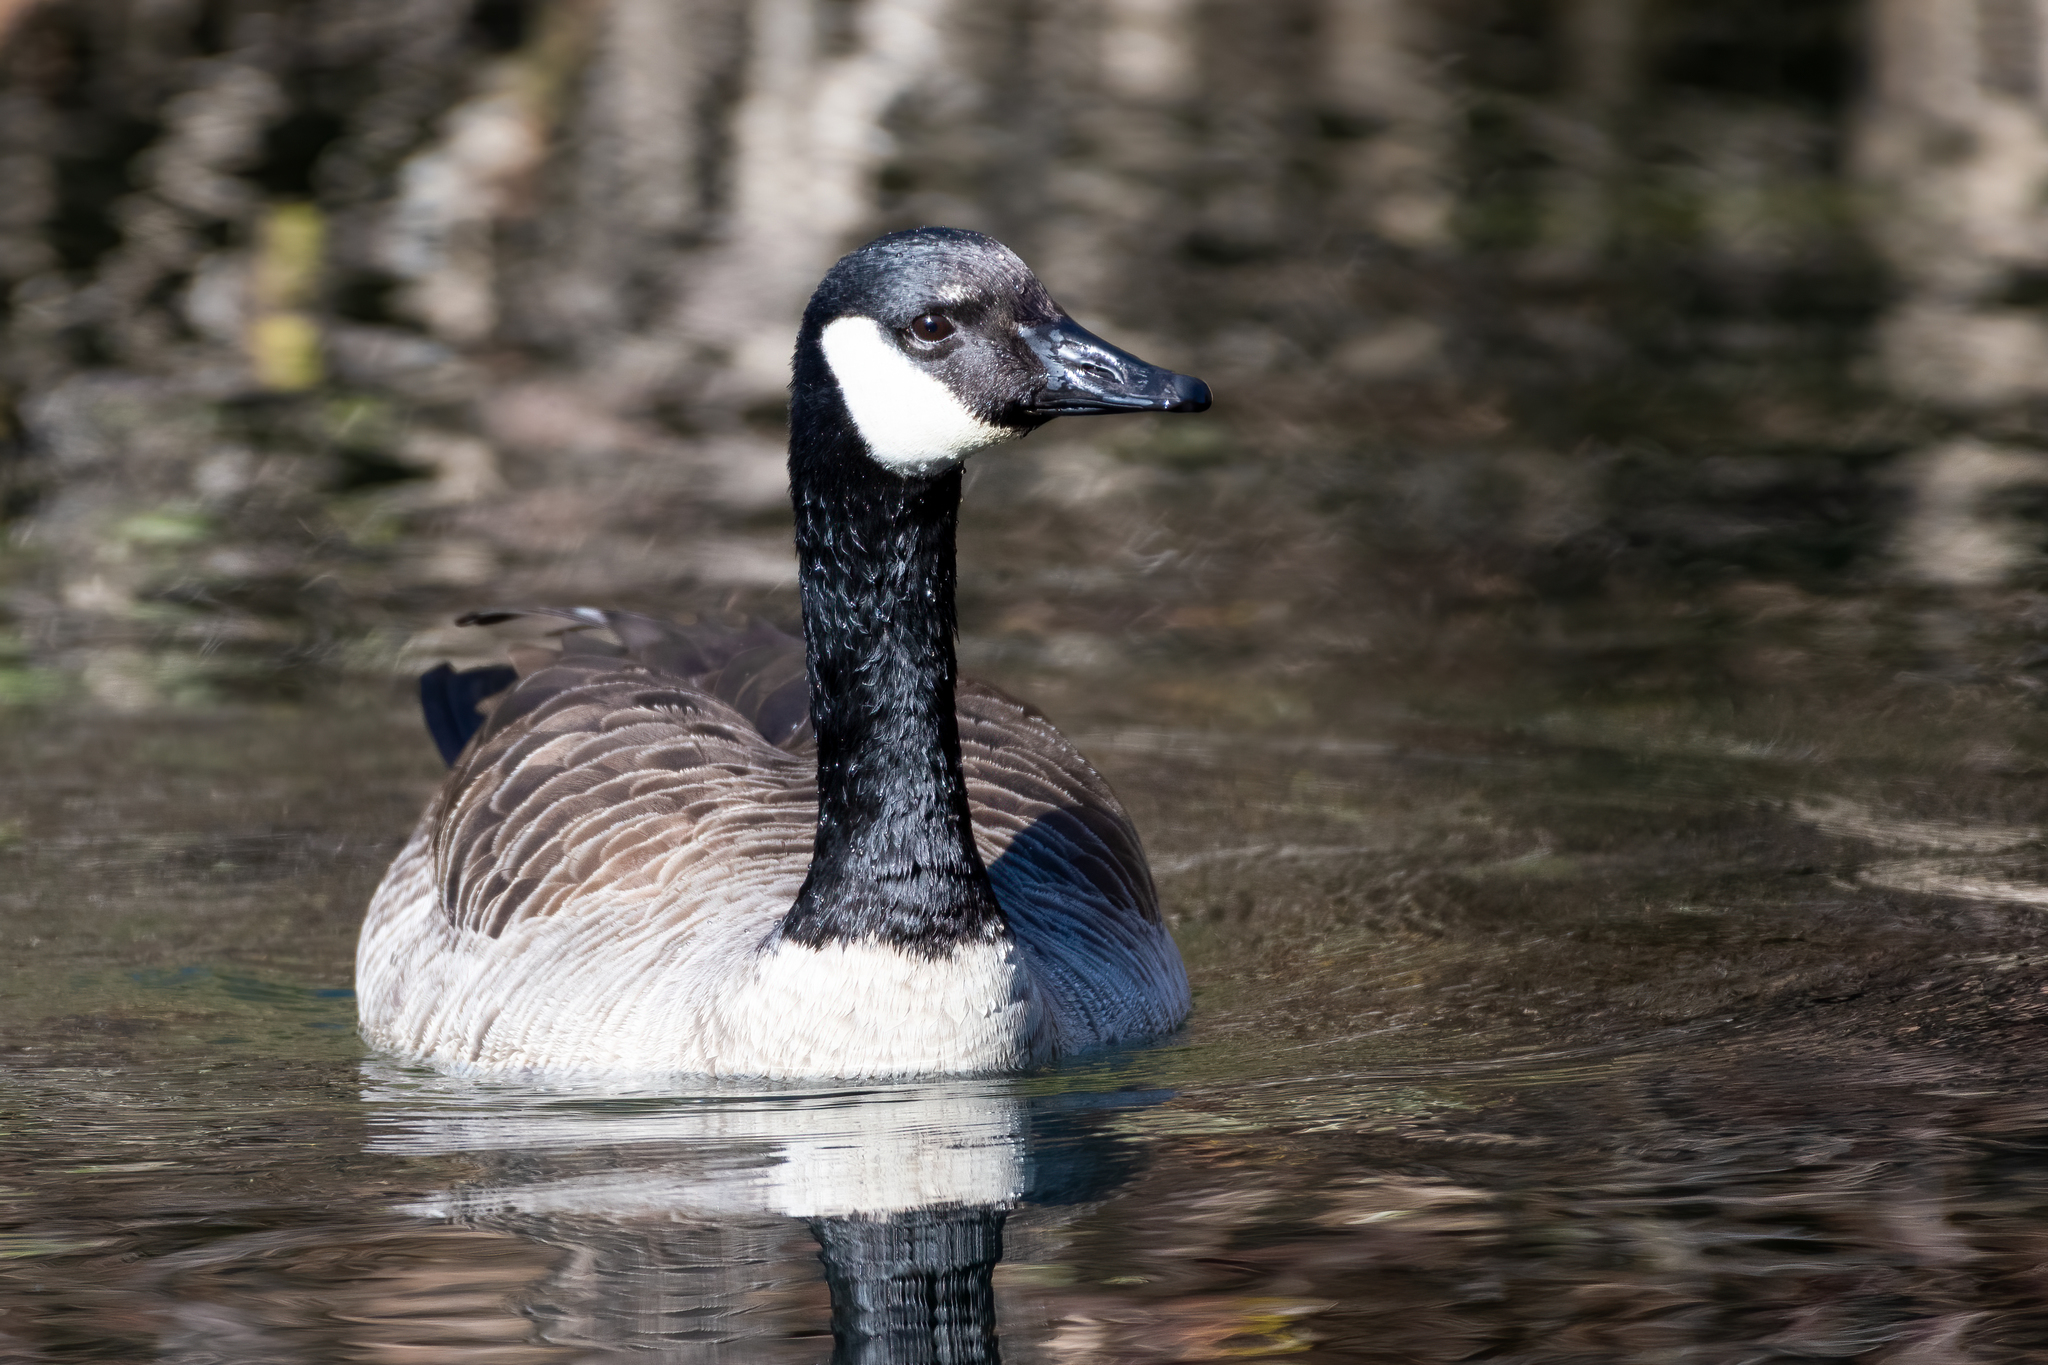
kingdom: Animalia
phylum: Chordata
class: Aves
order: Anseriformes
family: Anatidae
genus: Branta
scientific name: Branta canadensis
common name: Canada goose
